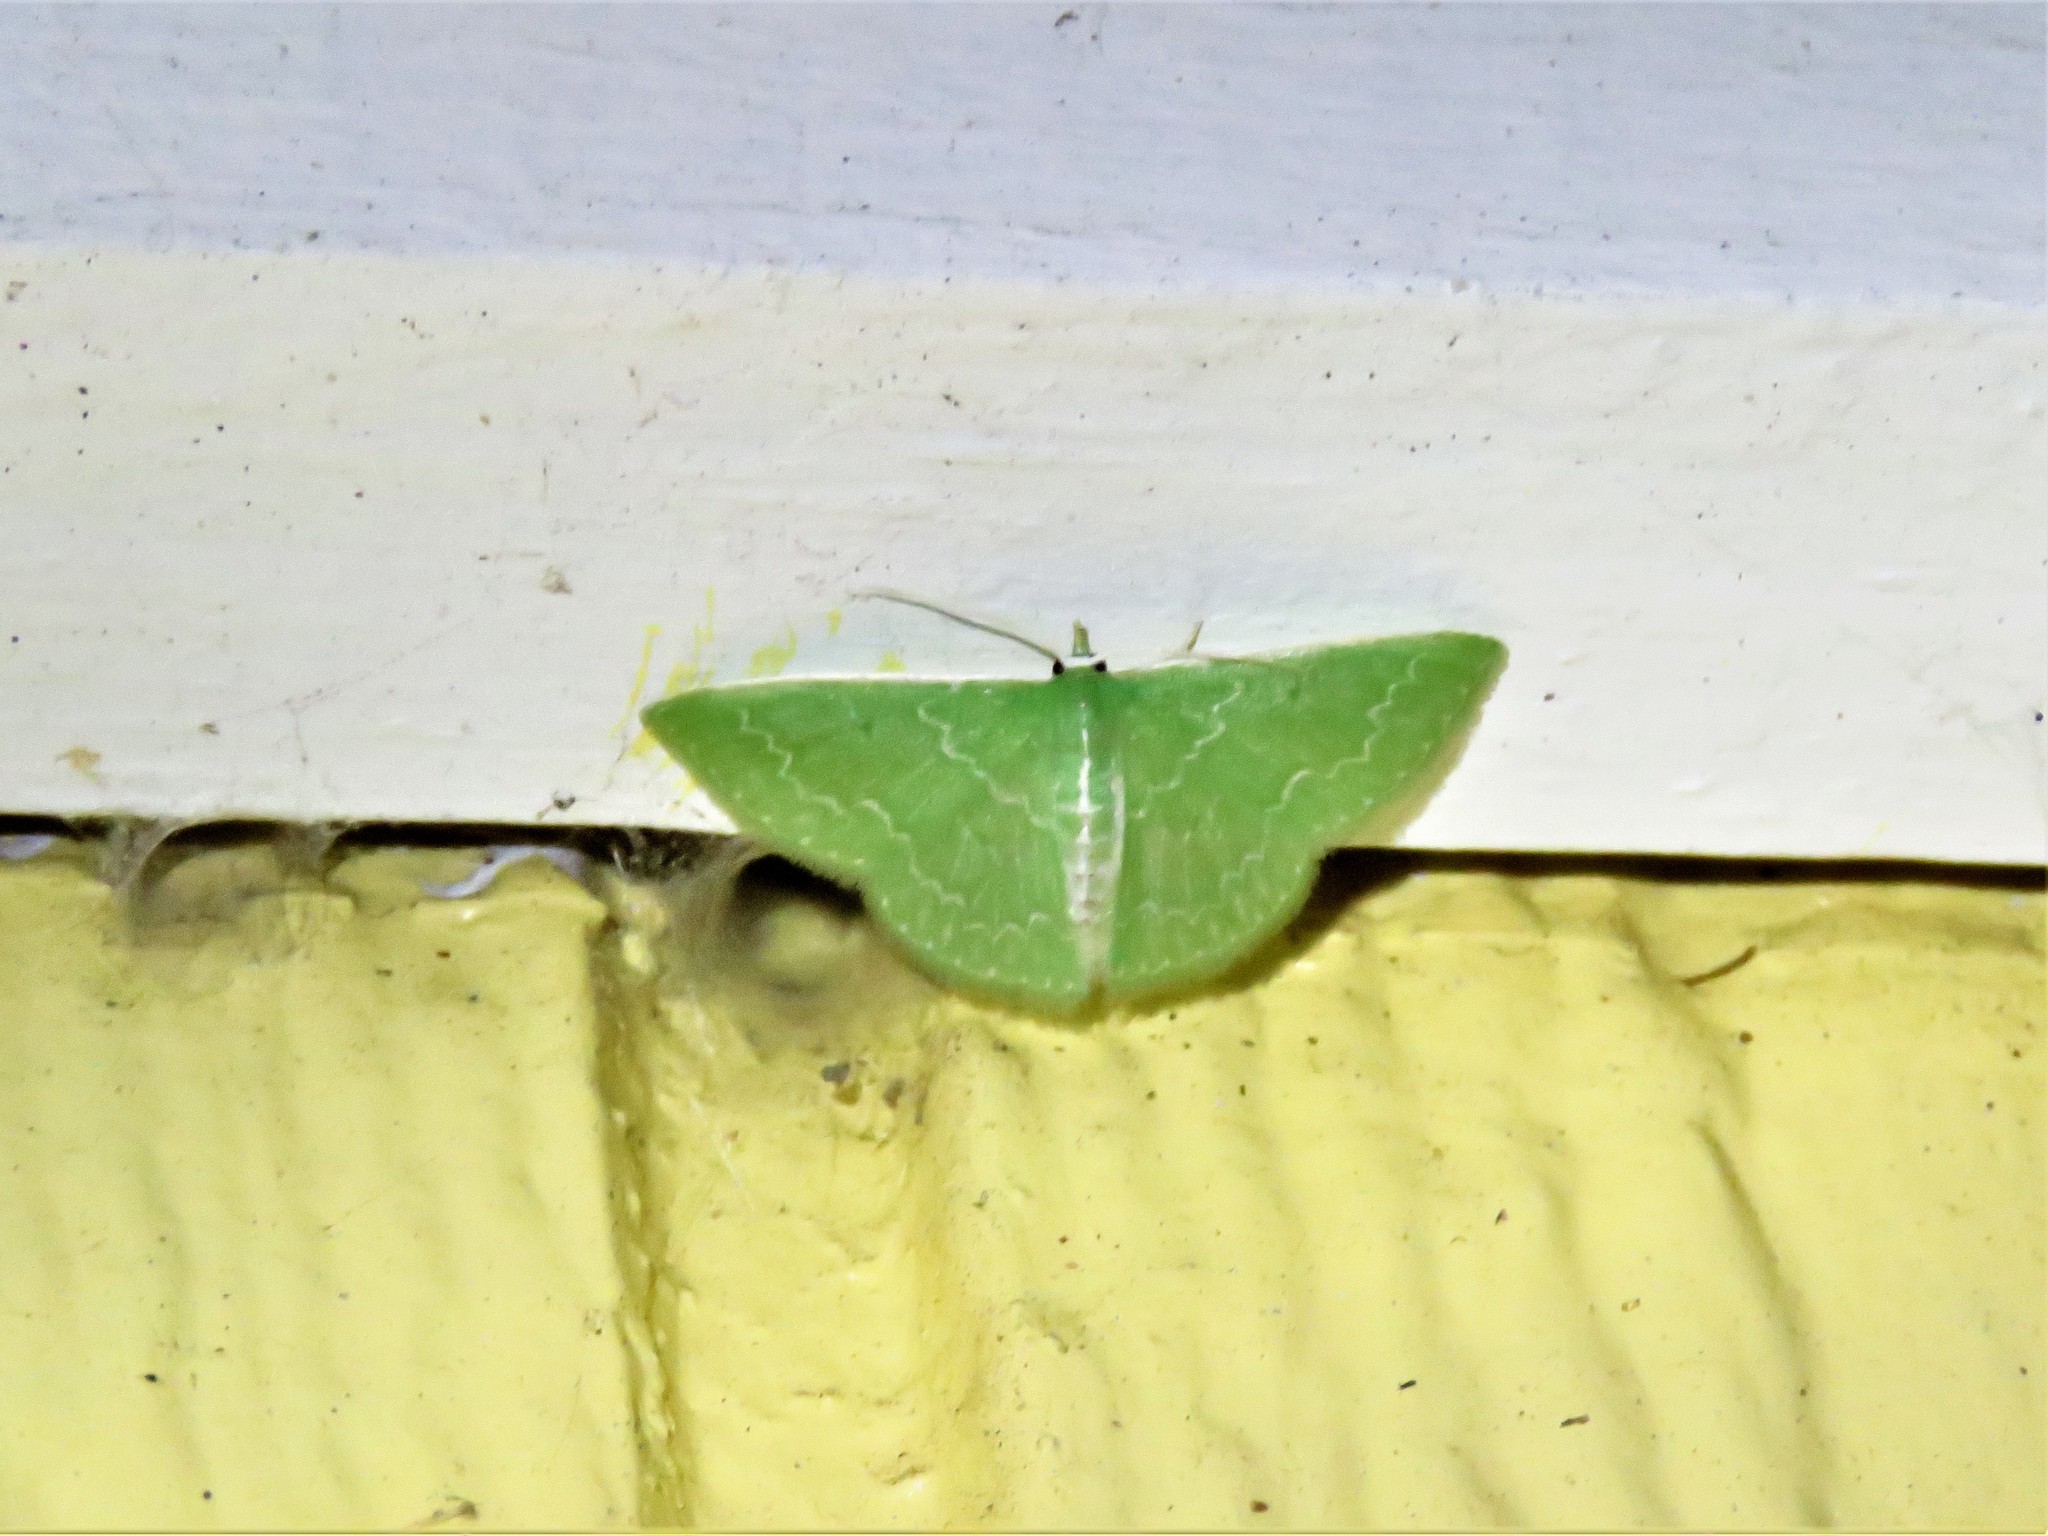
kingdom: Animalia
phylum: Arthropoda
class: Insecta
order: Lepidoptera
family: Geometridae
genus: Synchlora
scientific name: Synchlora frondaria
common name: Southern emerald
